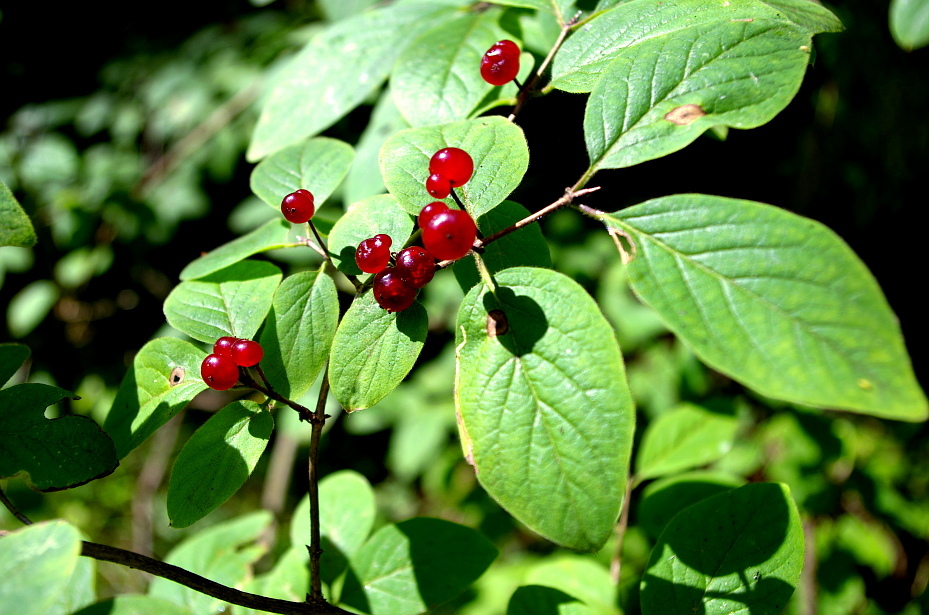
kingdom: Plantae
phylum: Tracheophyta
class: Magnoliopsida
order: Dipsacales
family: Caprifoliaceae
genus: Lonicera
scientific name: Lonicera xylosteum
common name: Fly honeysuckle
